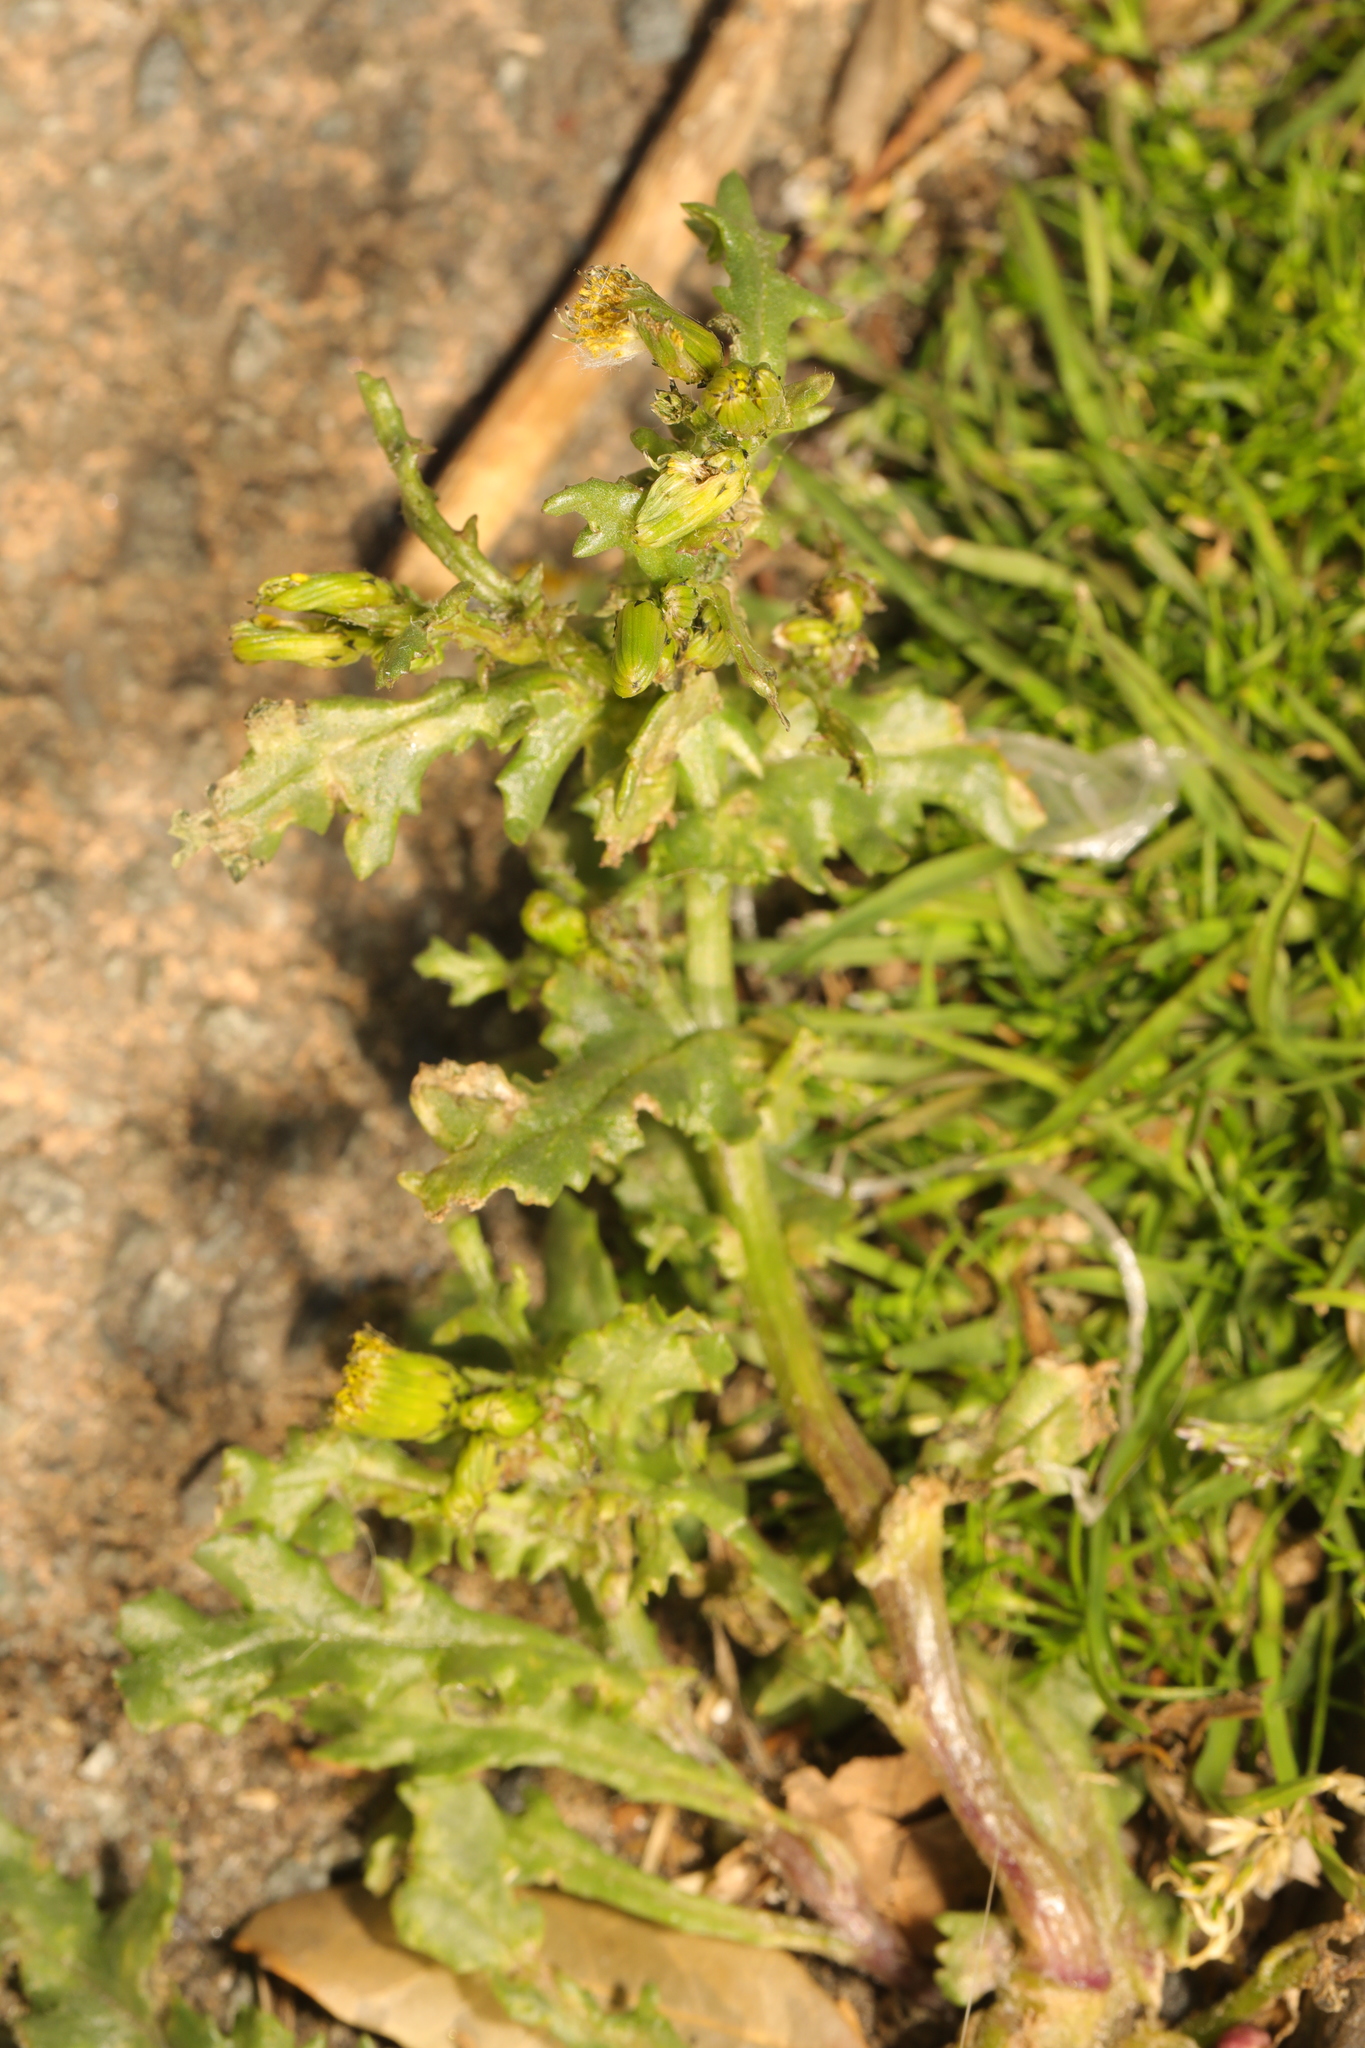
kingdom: Plantae
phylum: Tracheophyta
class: Magnoliopsida
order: Asterales
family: Asteraceae
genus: Senecio
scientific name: Senecio vulgaris
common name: Old-man-in-the-spring
